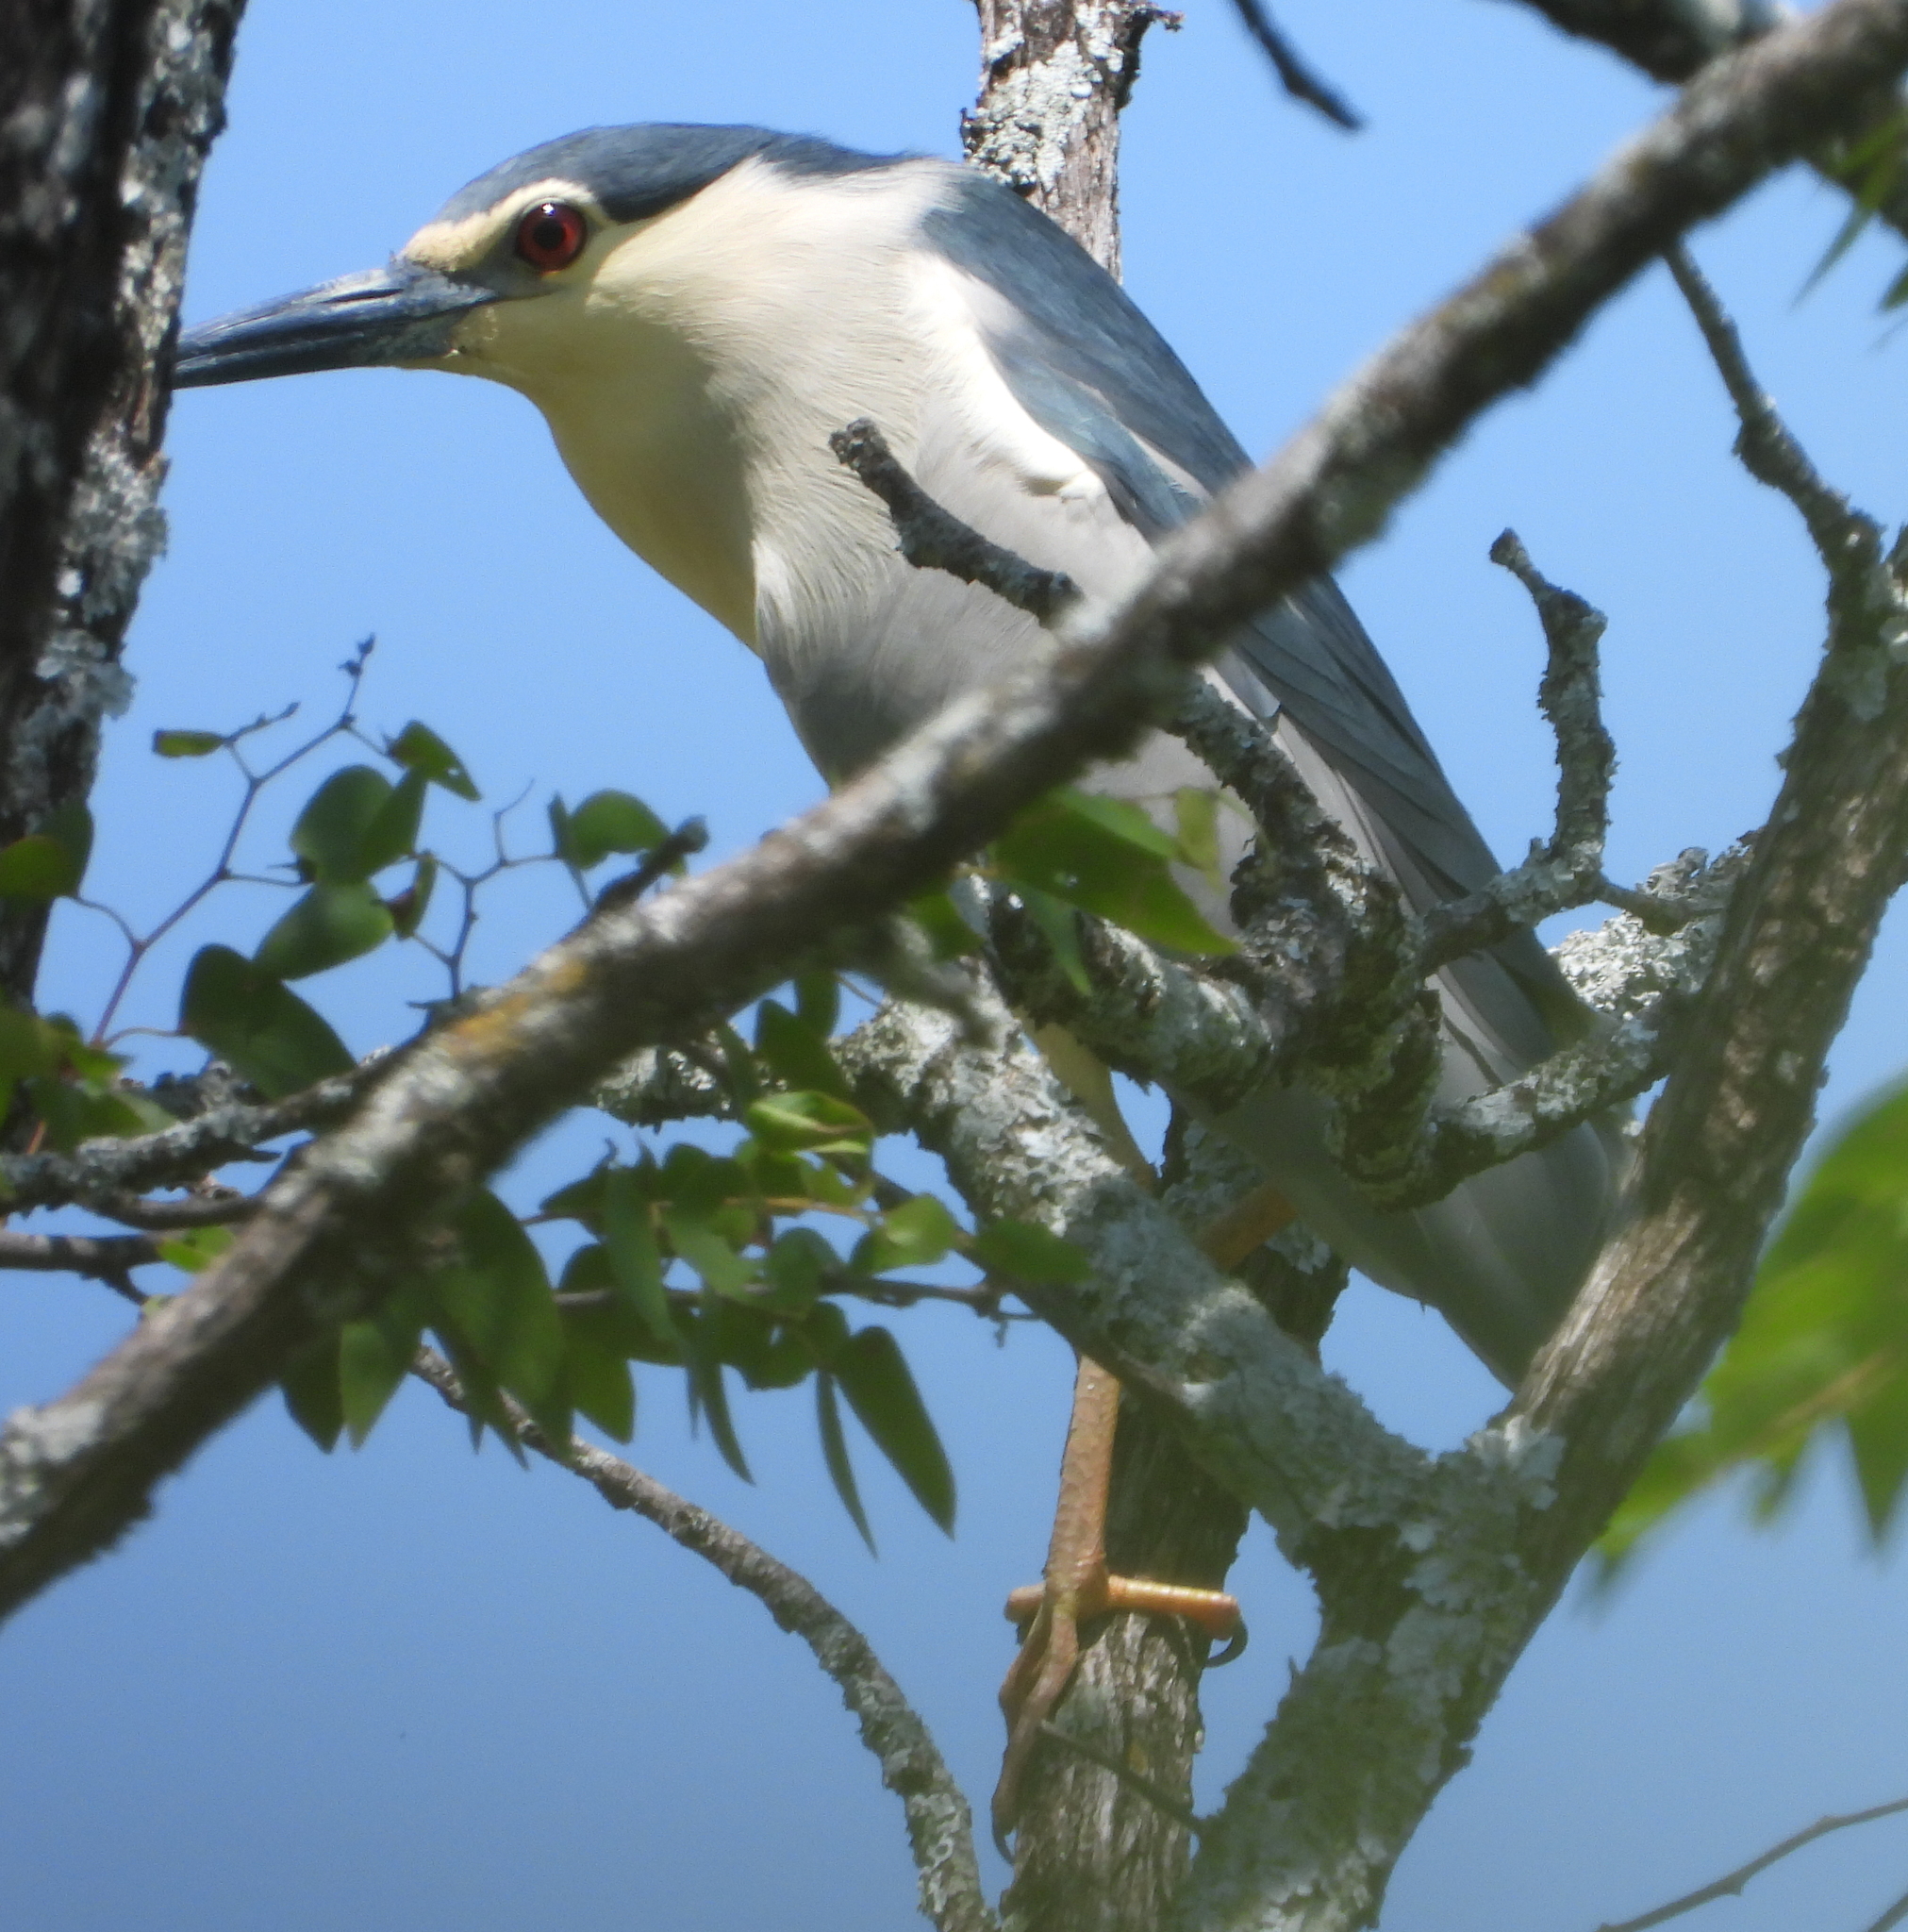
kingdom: Animalia
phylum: Chordata
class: Aves
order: Pelecaniformes
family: Ardeidae
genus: Nycticorax
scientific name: Nycticorax nycticorax
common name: Black-crowned night heron
